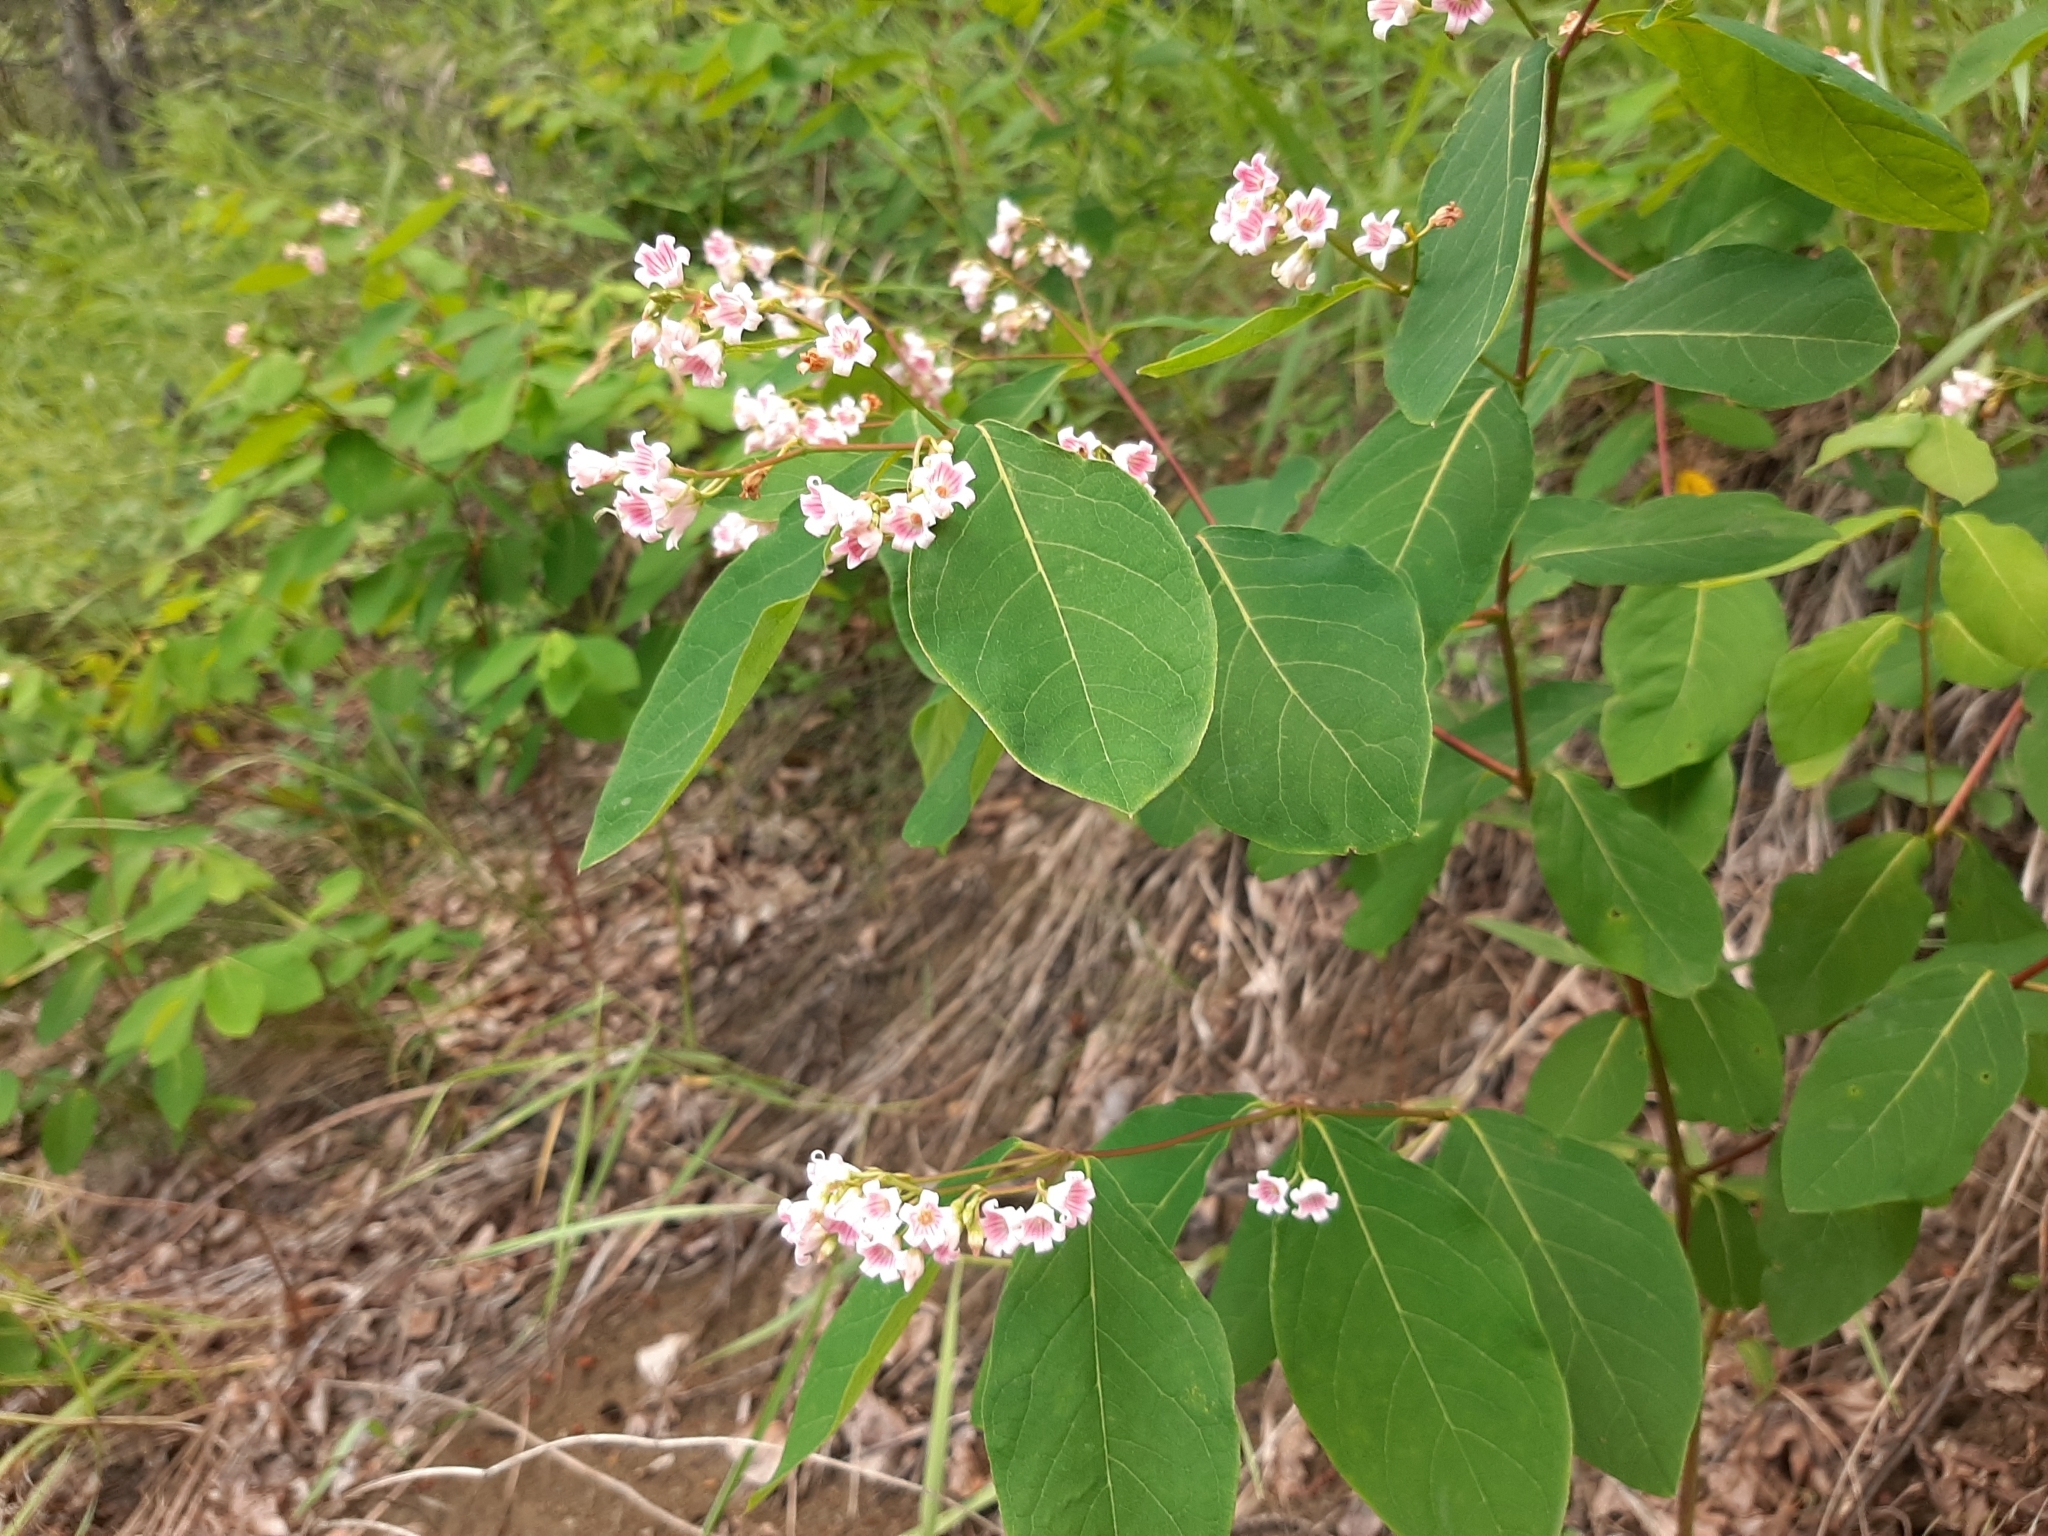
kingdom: Plantae
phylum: Tracheophyta
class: Magnoliopsida
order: Gentianales
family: Apocynaceae
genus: Apocynum
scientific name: Apocynum androsaemifolium
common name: Spreading dogbane
